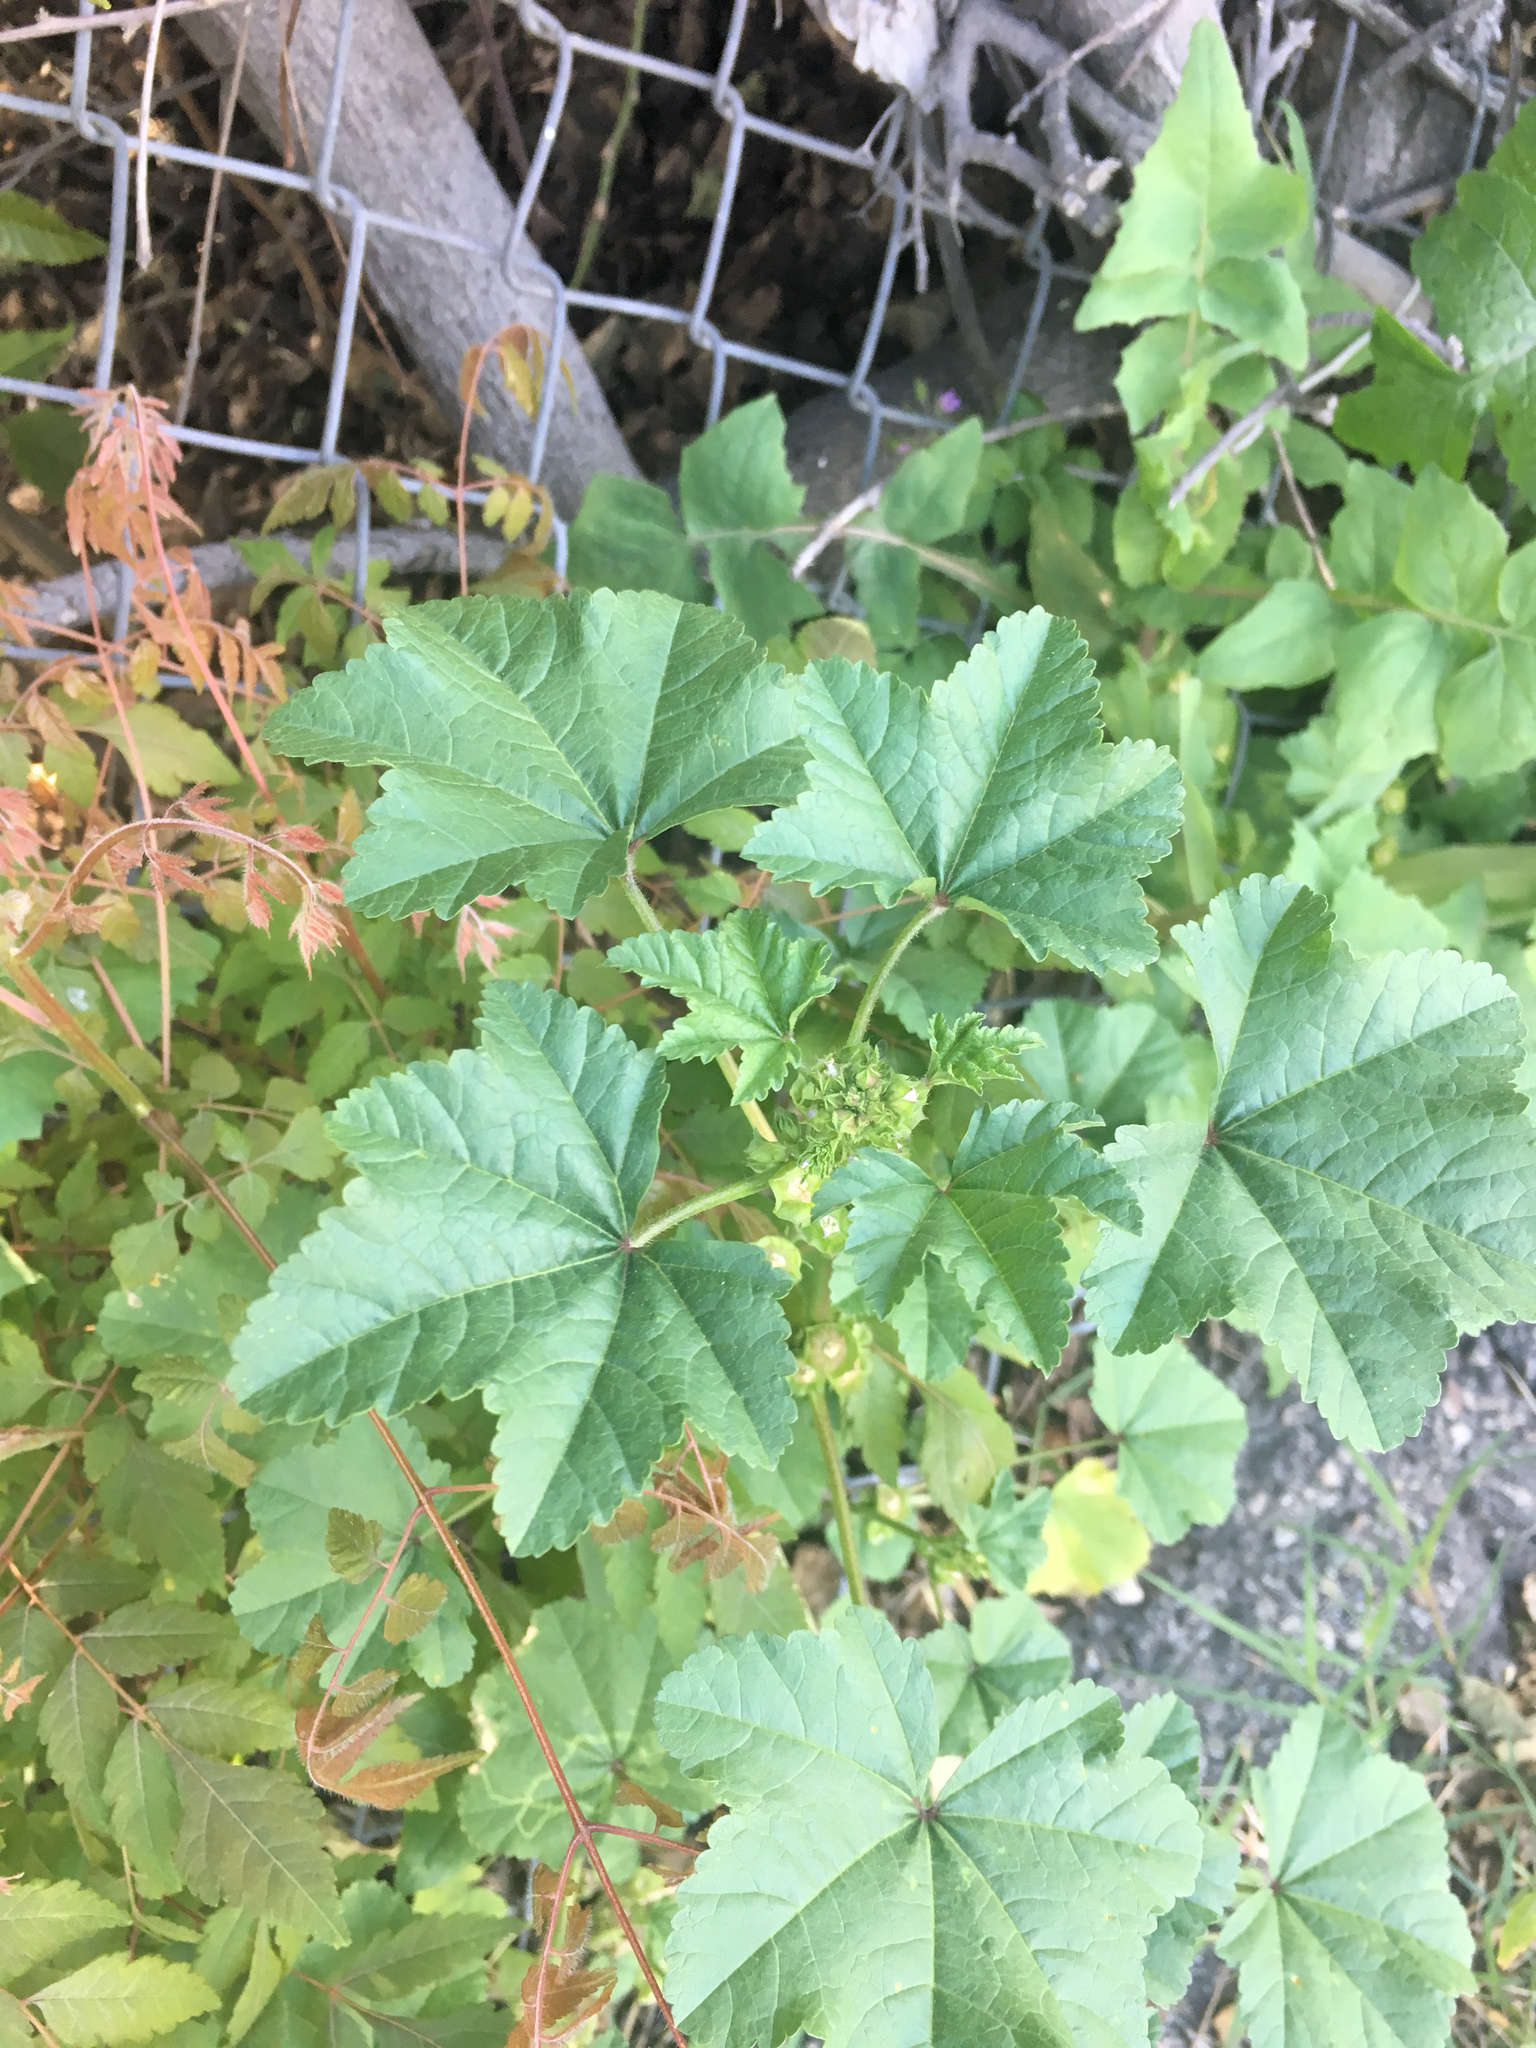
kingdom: Plantae
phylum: Tracheophyta
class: Magnoliopsida
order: Malvales
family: Malvaceae
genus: Malva
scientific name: Malva parviflora
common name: Least mallow
